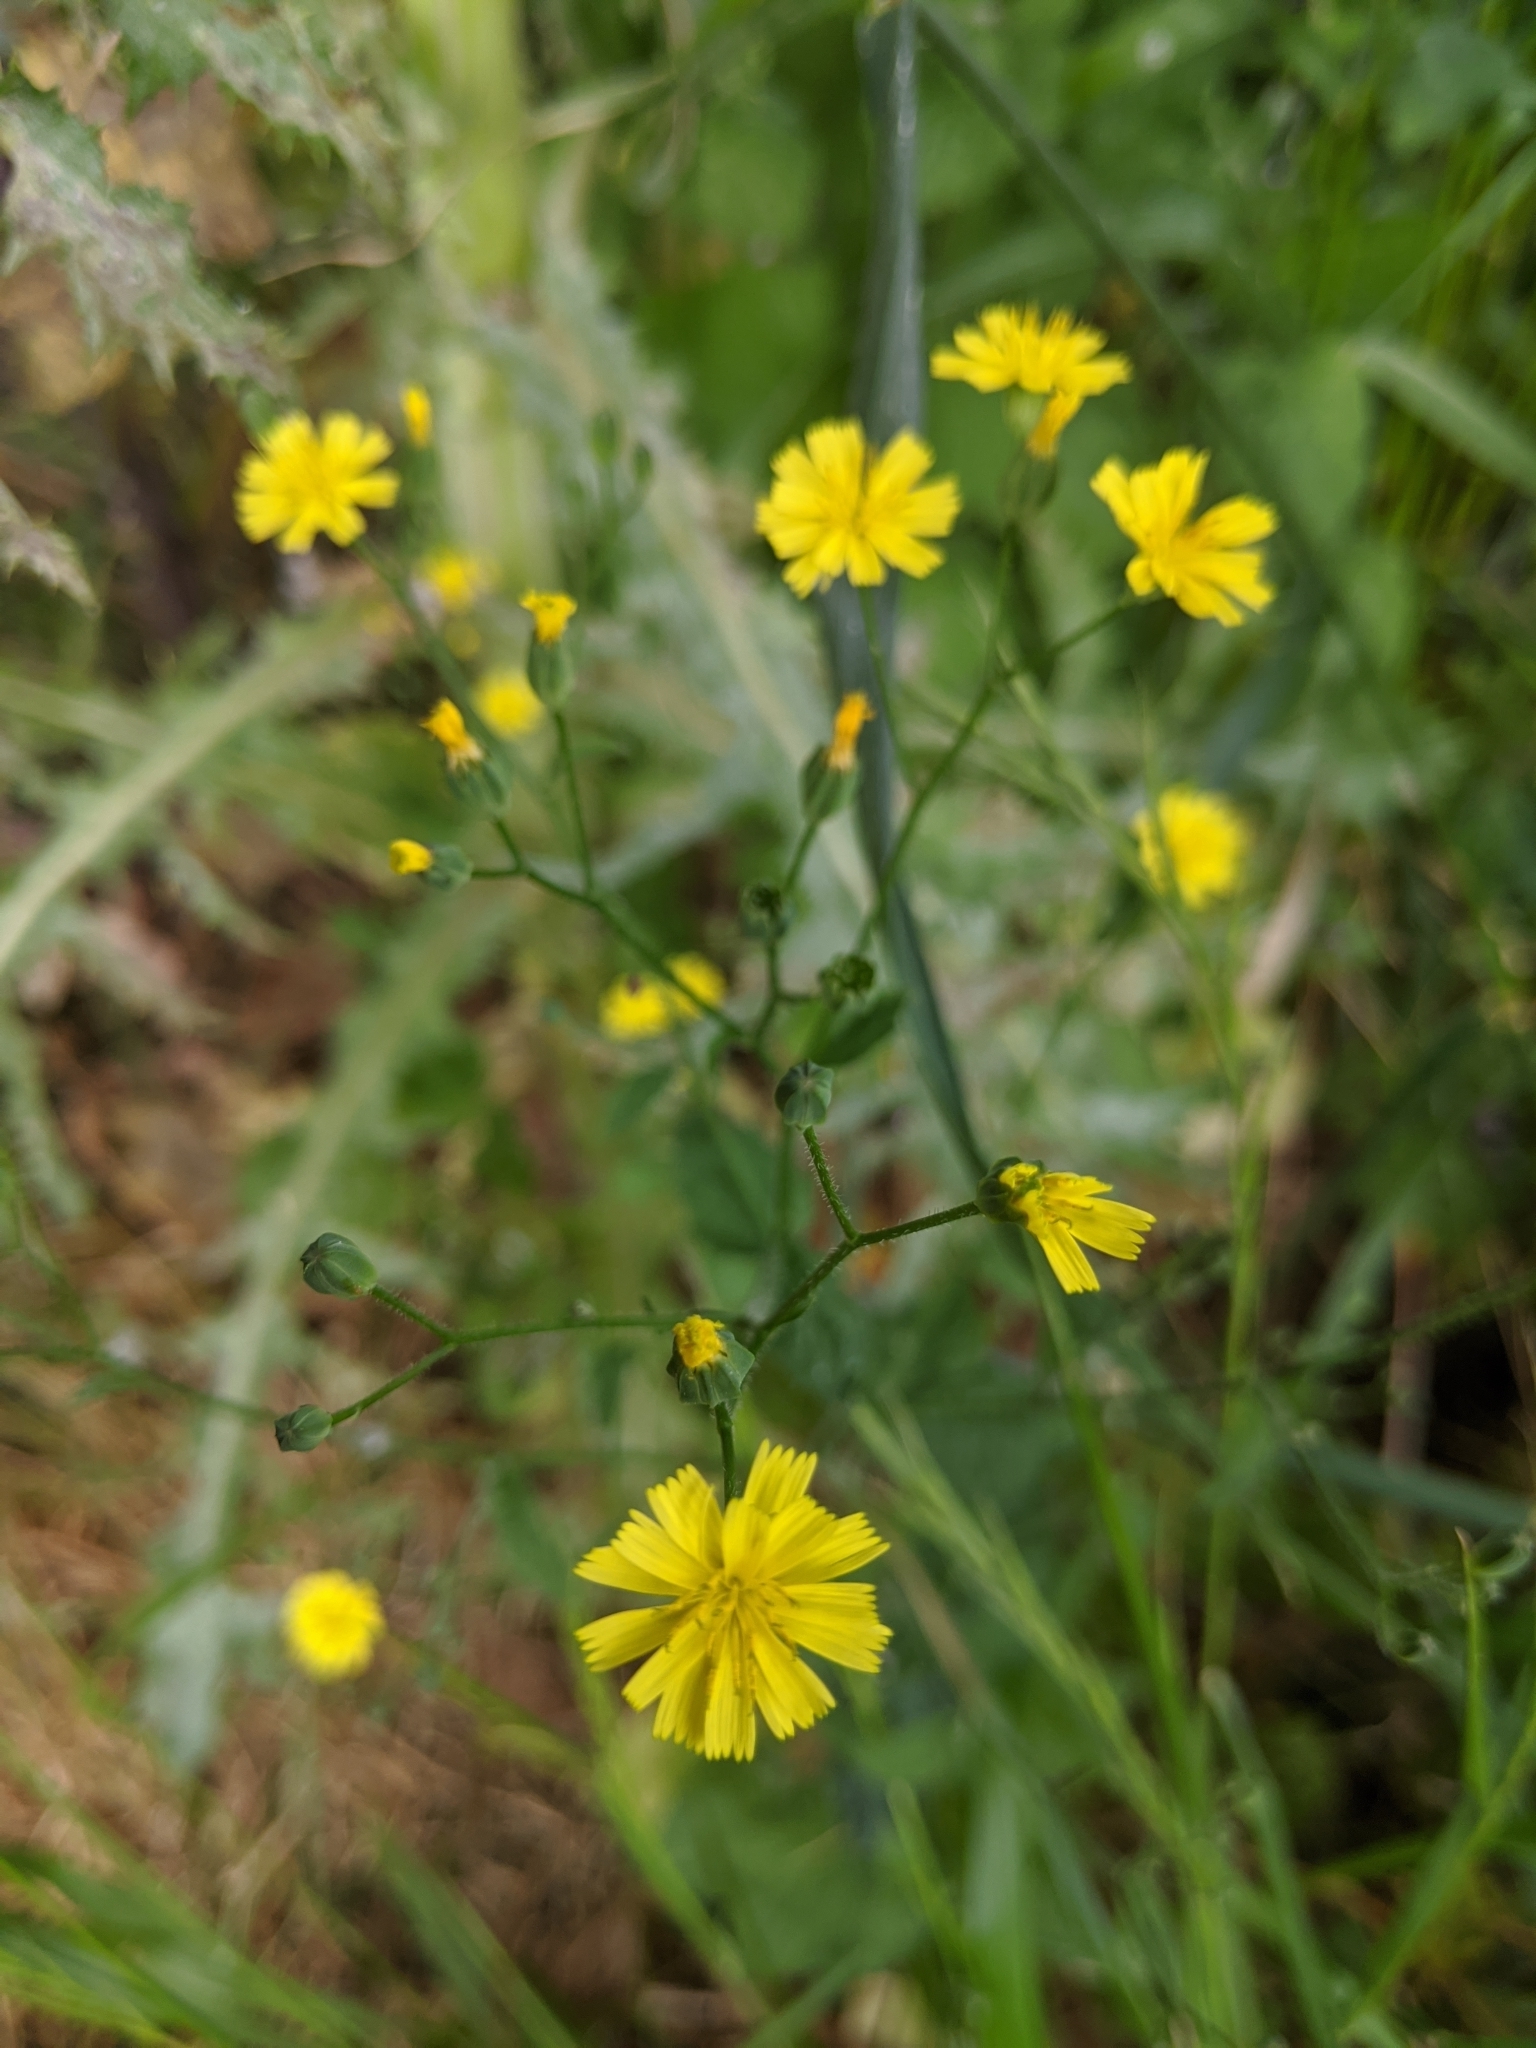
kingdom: Plantae
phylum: Tracheophyta
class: Magnoliopsida
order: Asterales
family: Asteraceae
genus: Lapsana
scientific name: Lapsana communis
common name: Nipplewort
